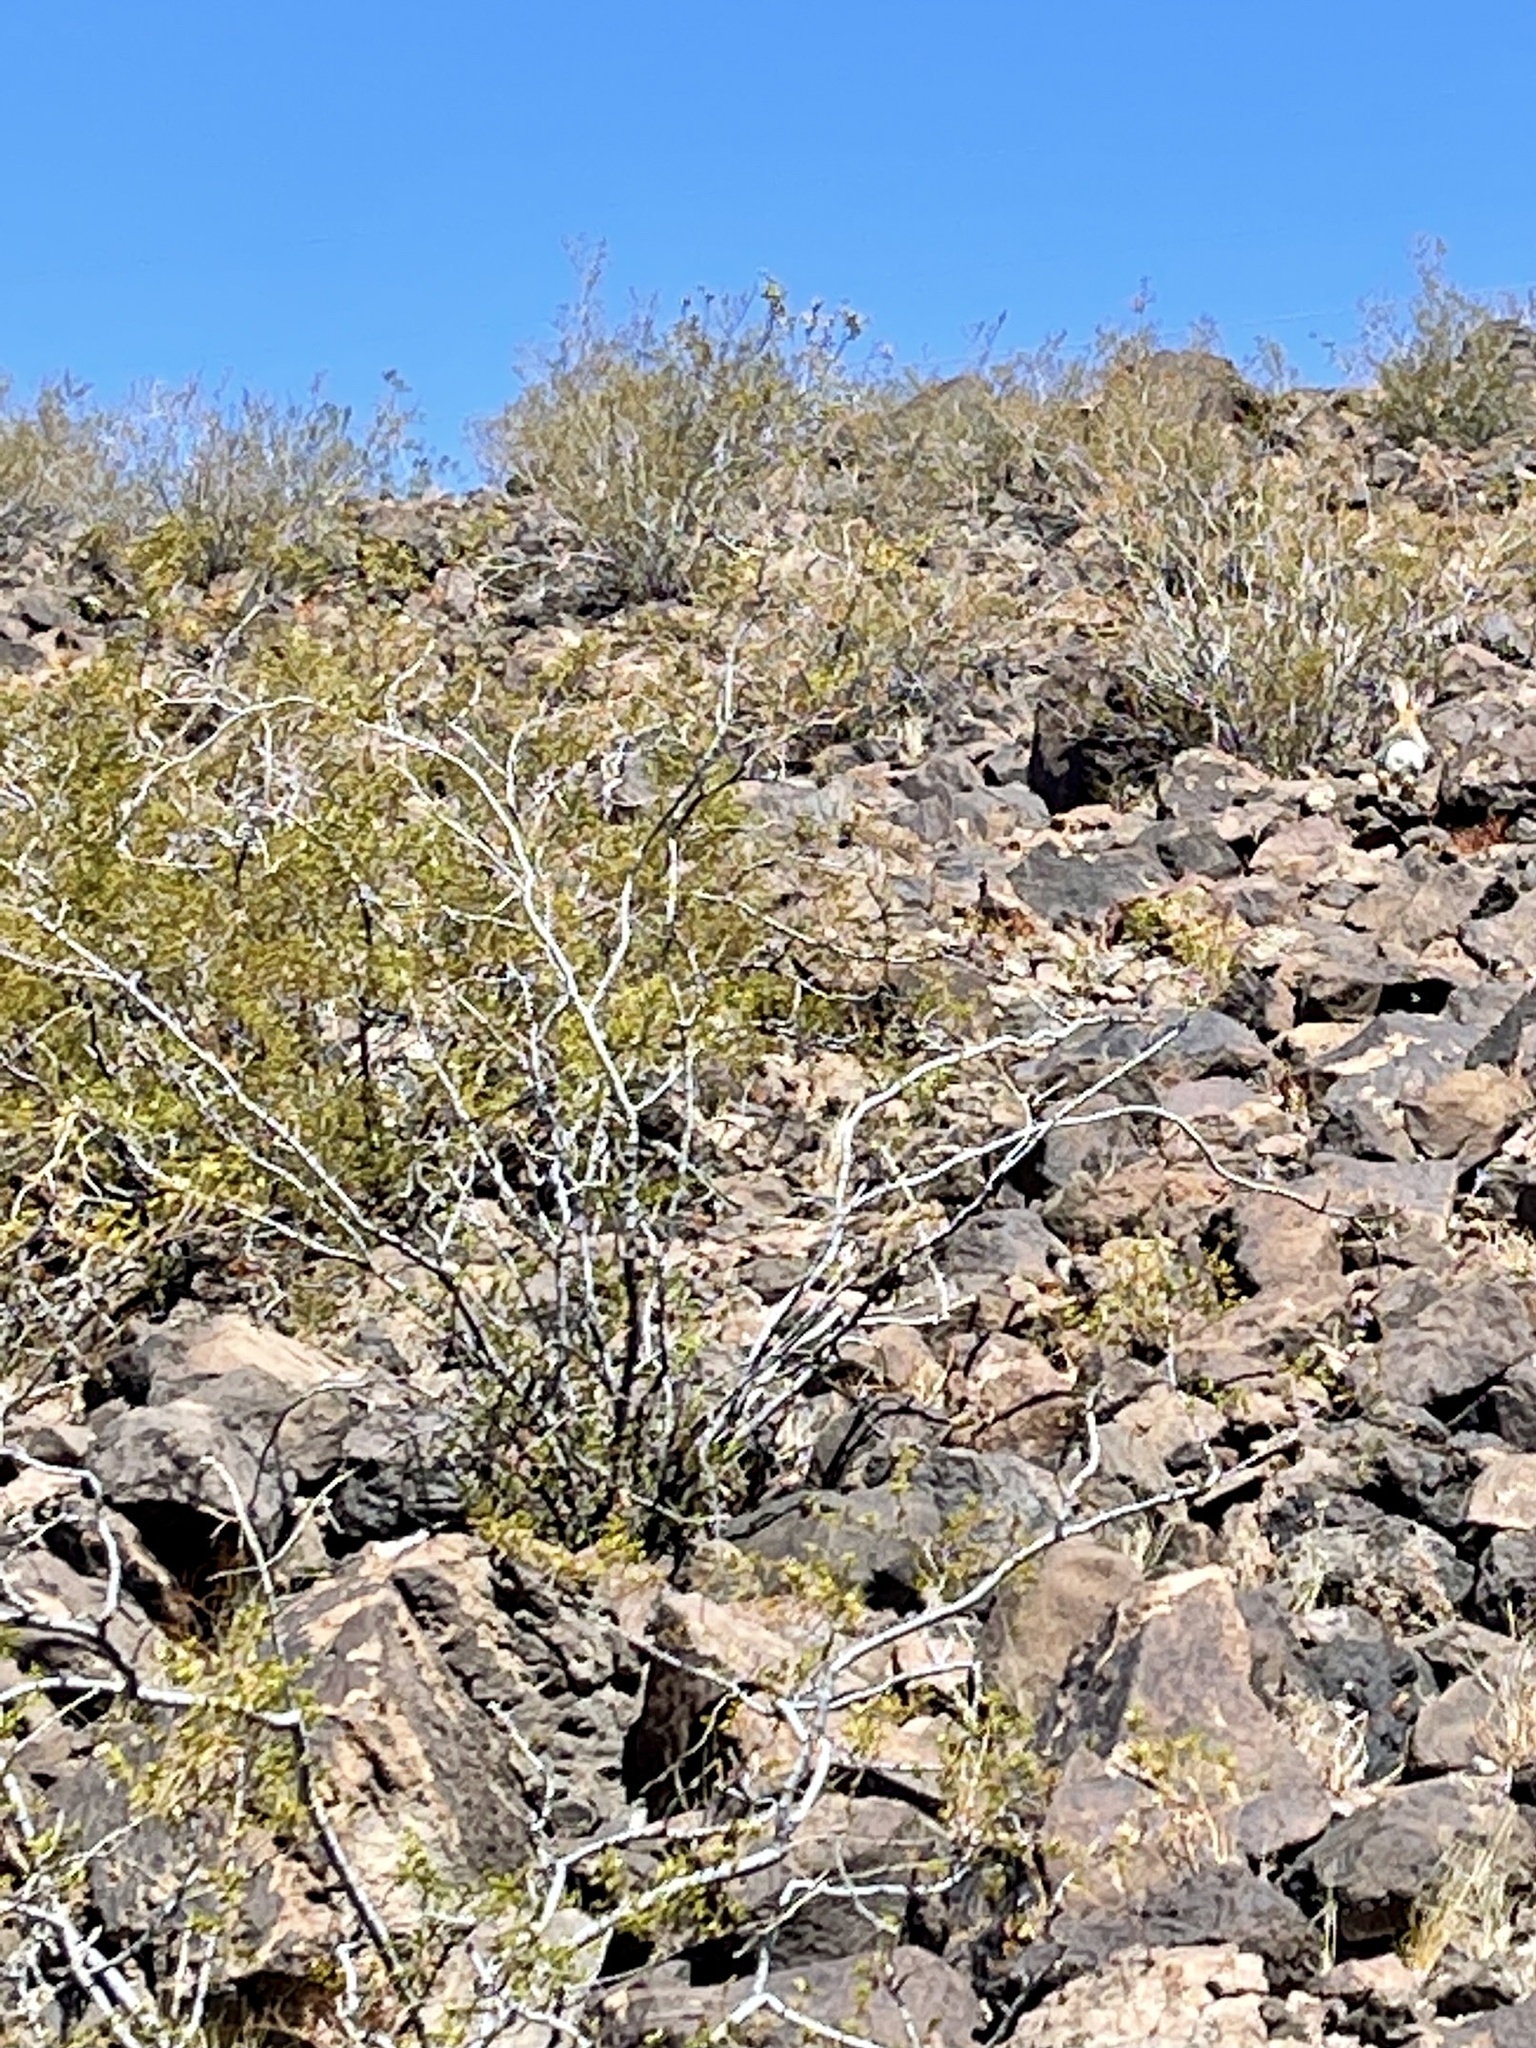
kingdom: Plantae
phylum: Tracheophyta
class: Magnoliopsida
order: Zygophyllales
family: Zygophyllaceae
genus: Larrea
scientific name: Larrea tridentata
